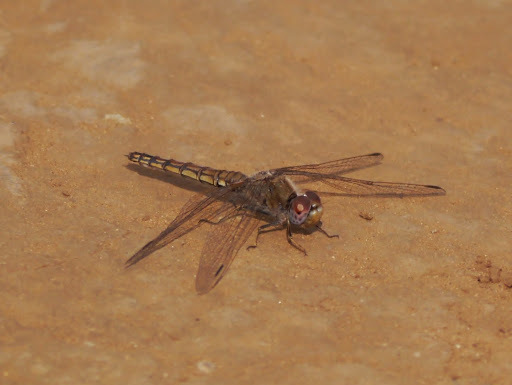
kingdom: Animalia
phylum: Arthropoda
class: Insecta
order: Odonata
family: Libellulidae
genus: Trithemis
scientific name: Trithemis annulata
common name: Violet dropwing
